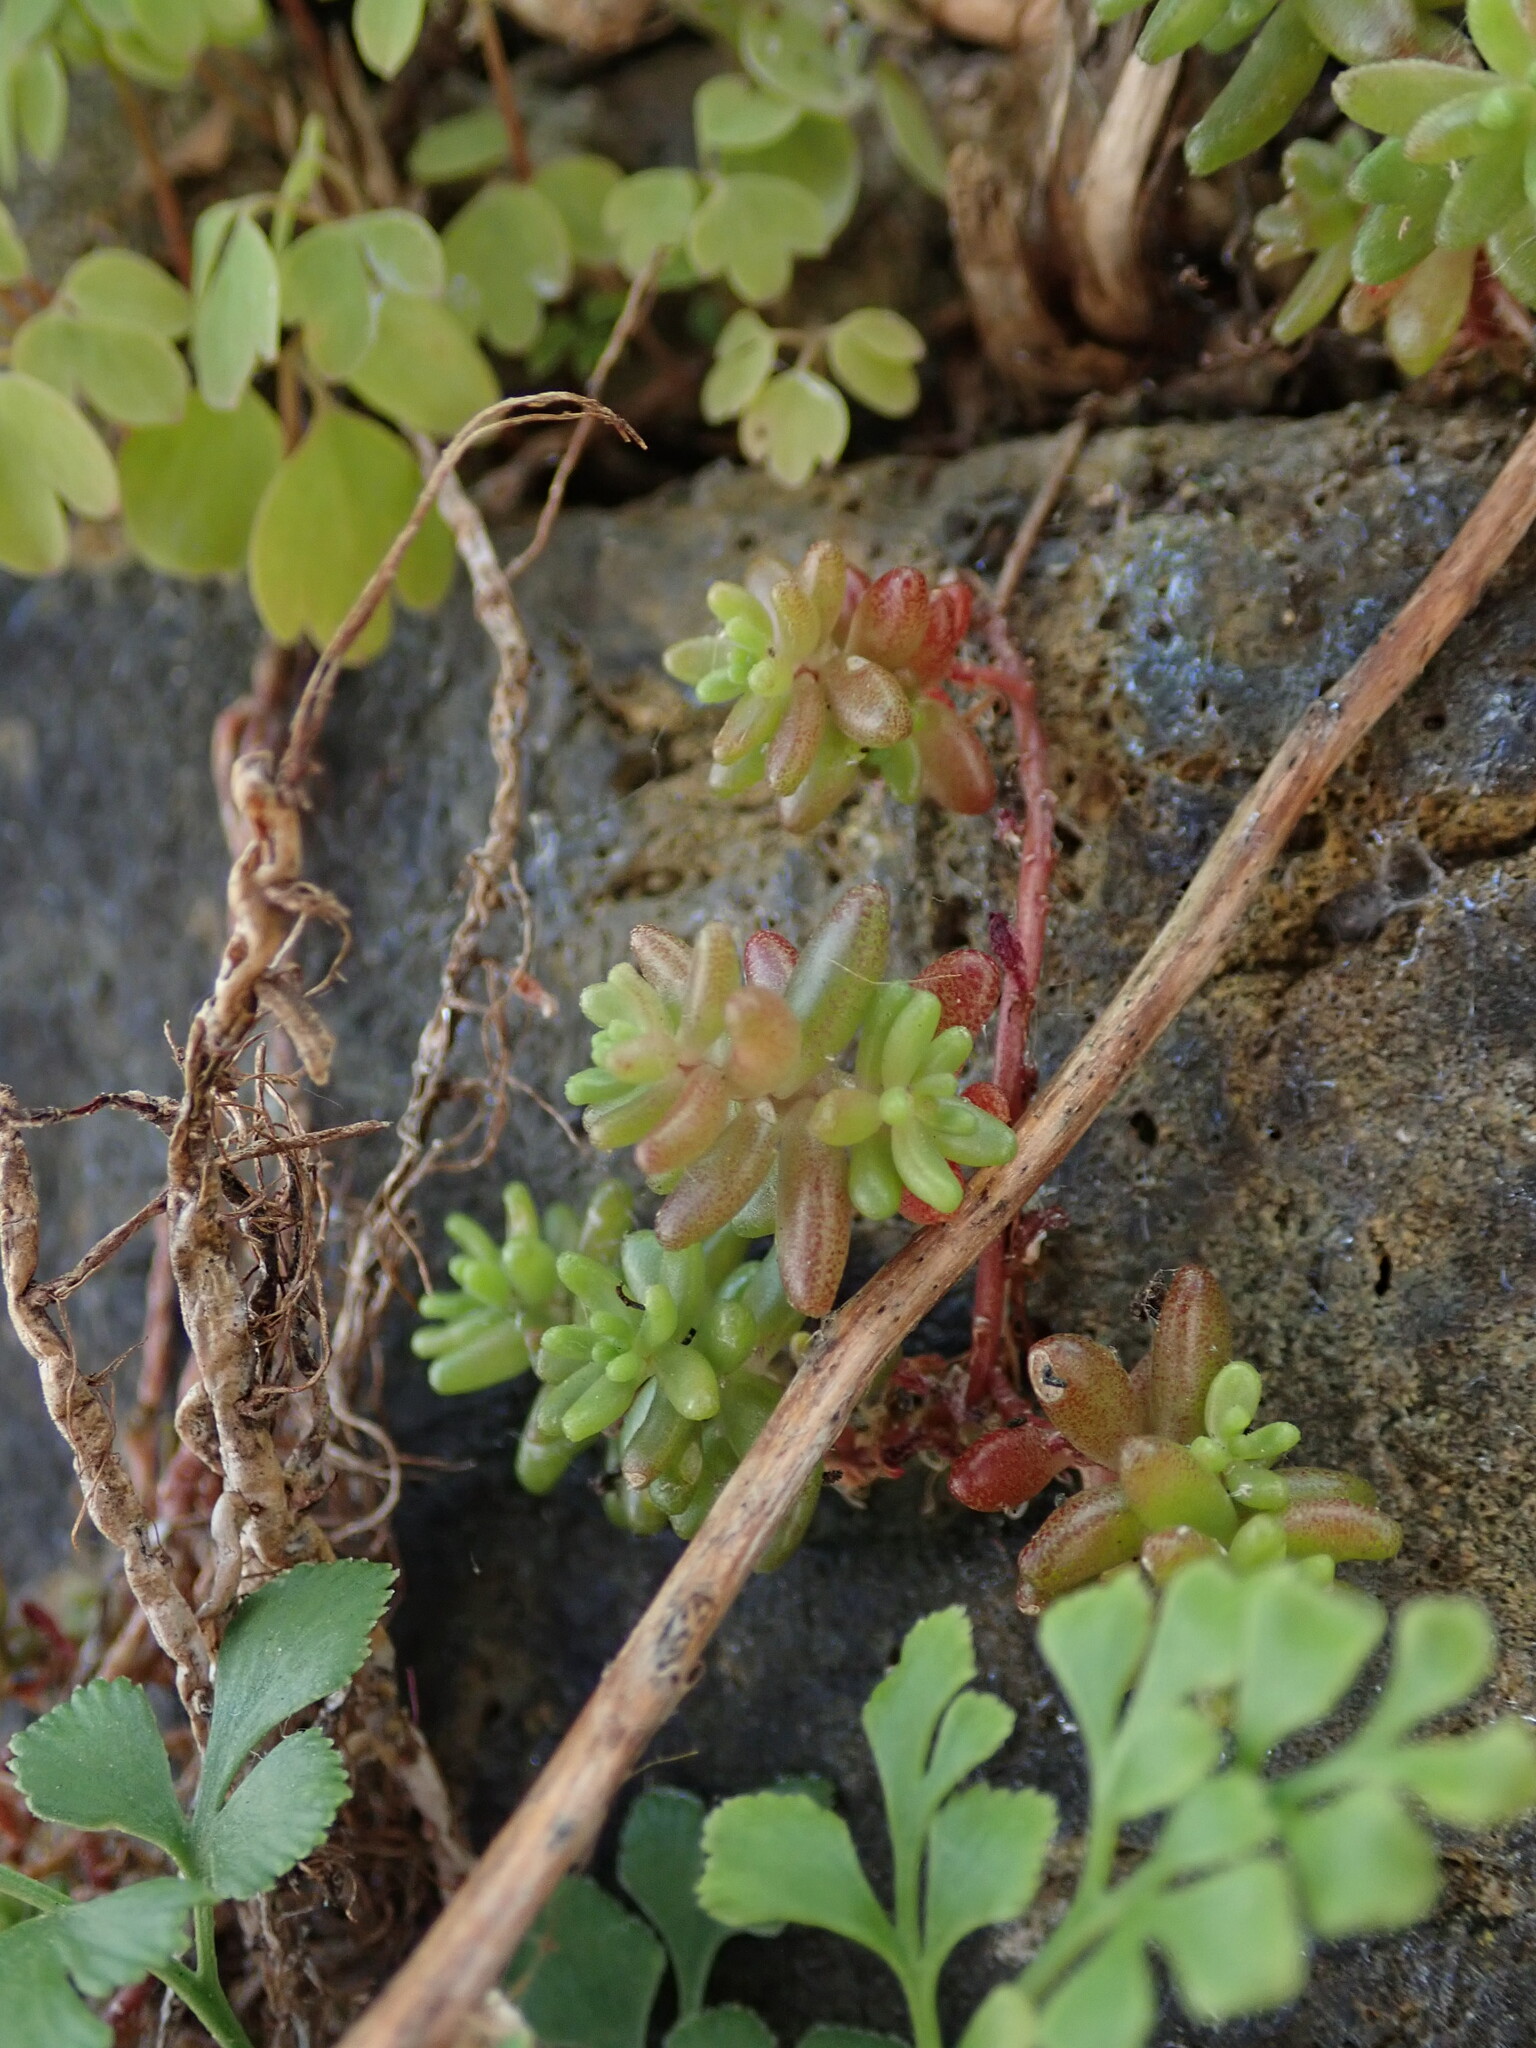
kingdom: Plantae
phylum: Tracheophyta
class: Magnoliopsida
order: Saxifragales
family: Crassulaceae
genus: Sedum
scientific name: Sedum album
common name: White stonecrop
